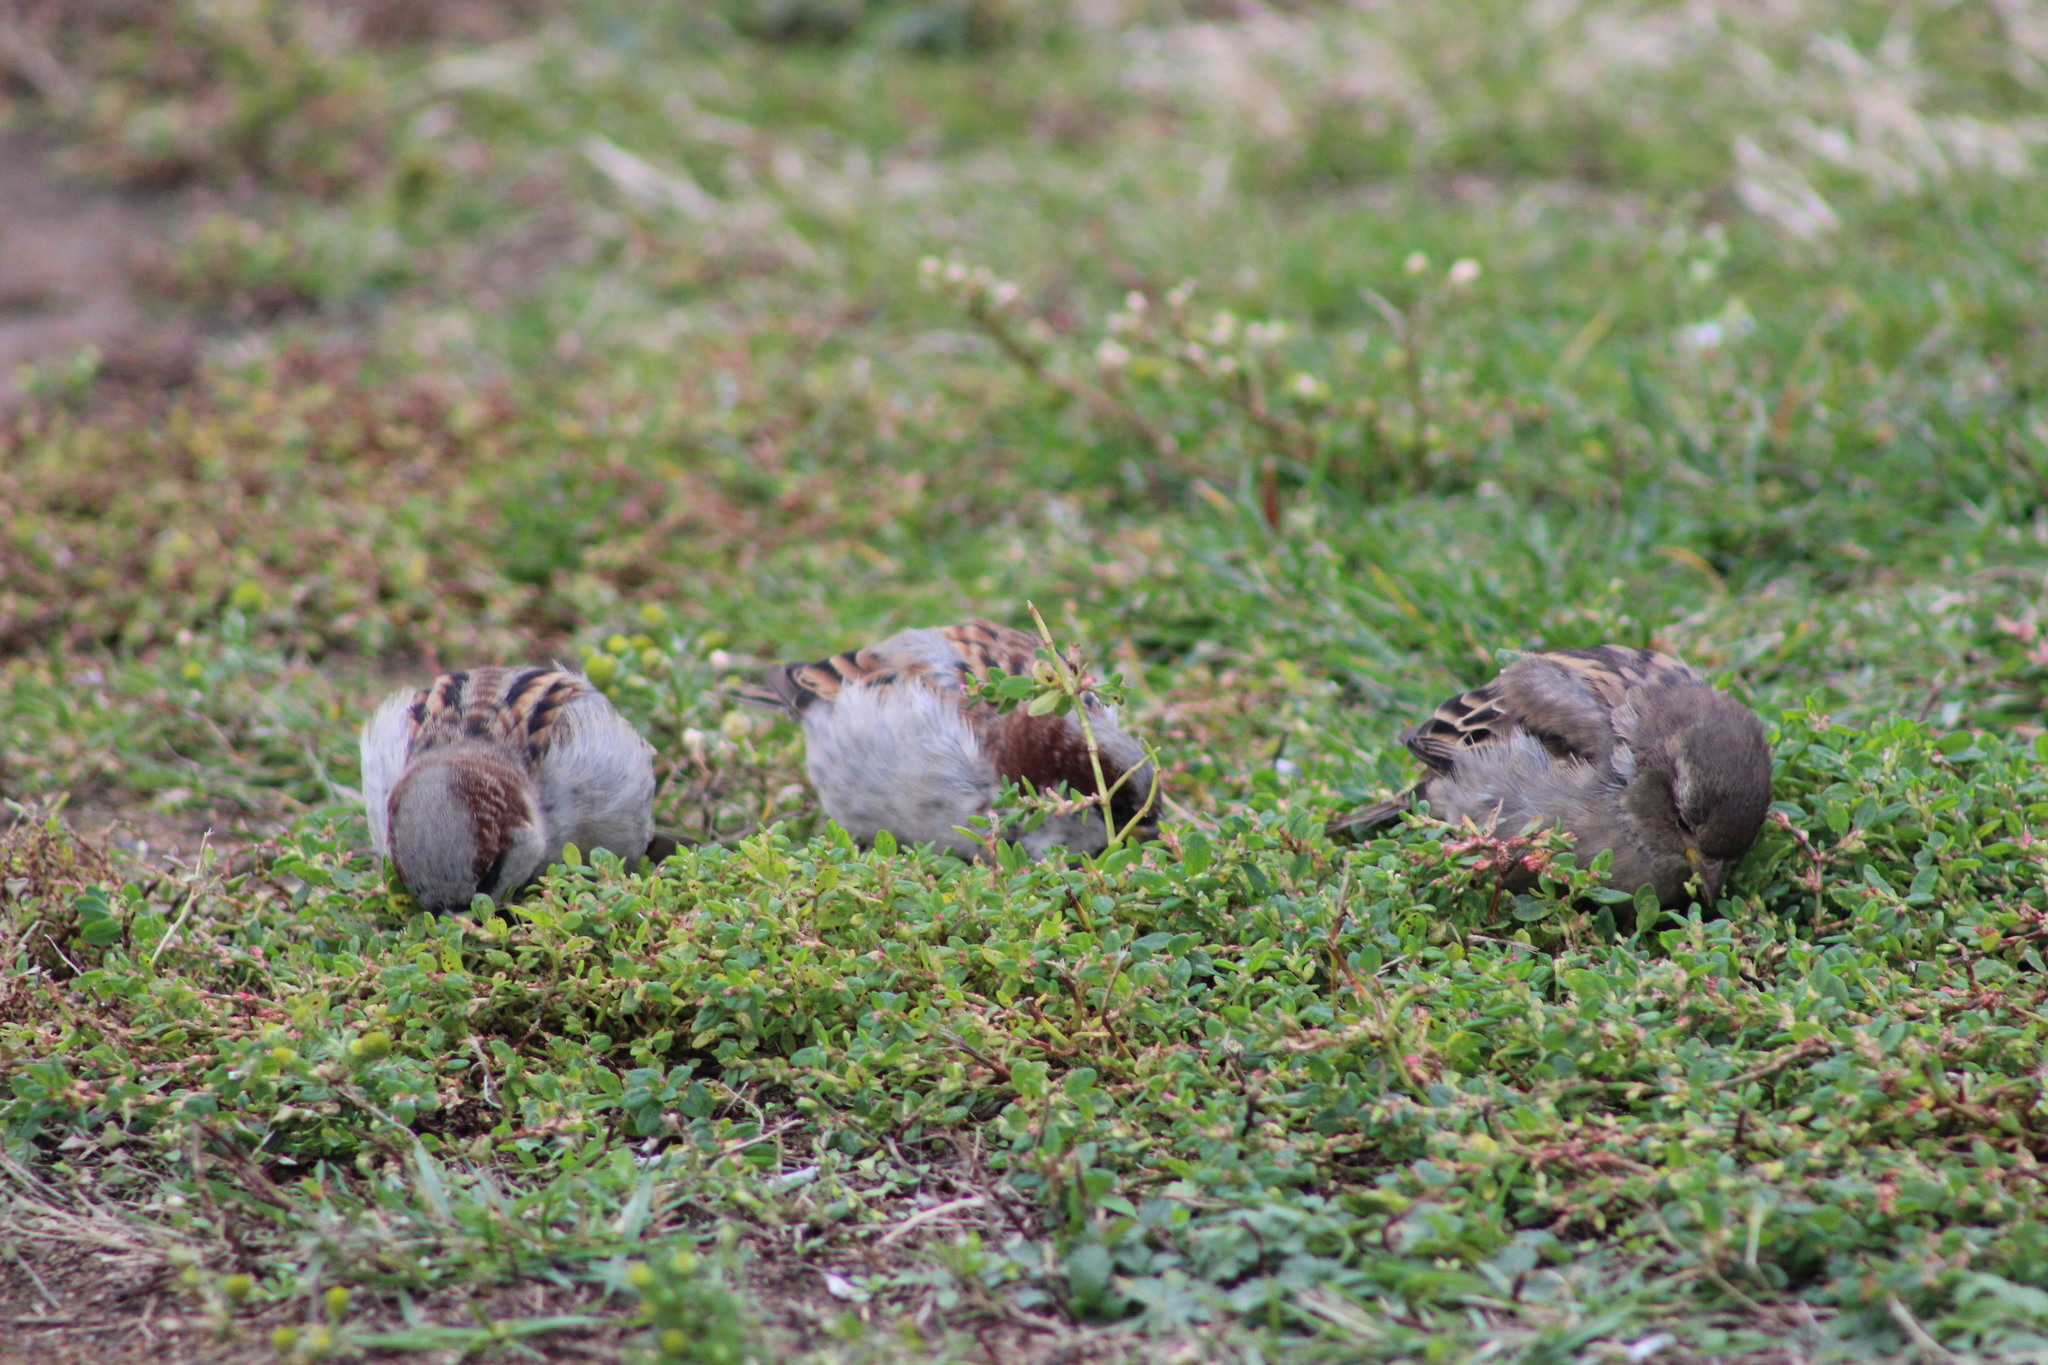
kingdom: Animalia
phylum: Chordata
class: Aves
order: Passeriformes
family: Passeridae
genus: Passer
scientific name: Passer domesticus
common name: House sparrow
